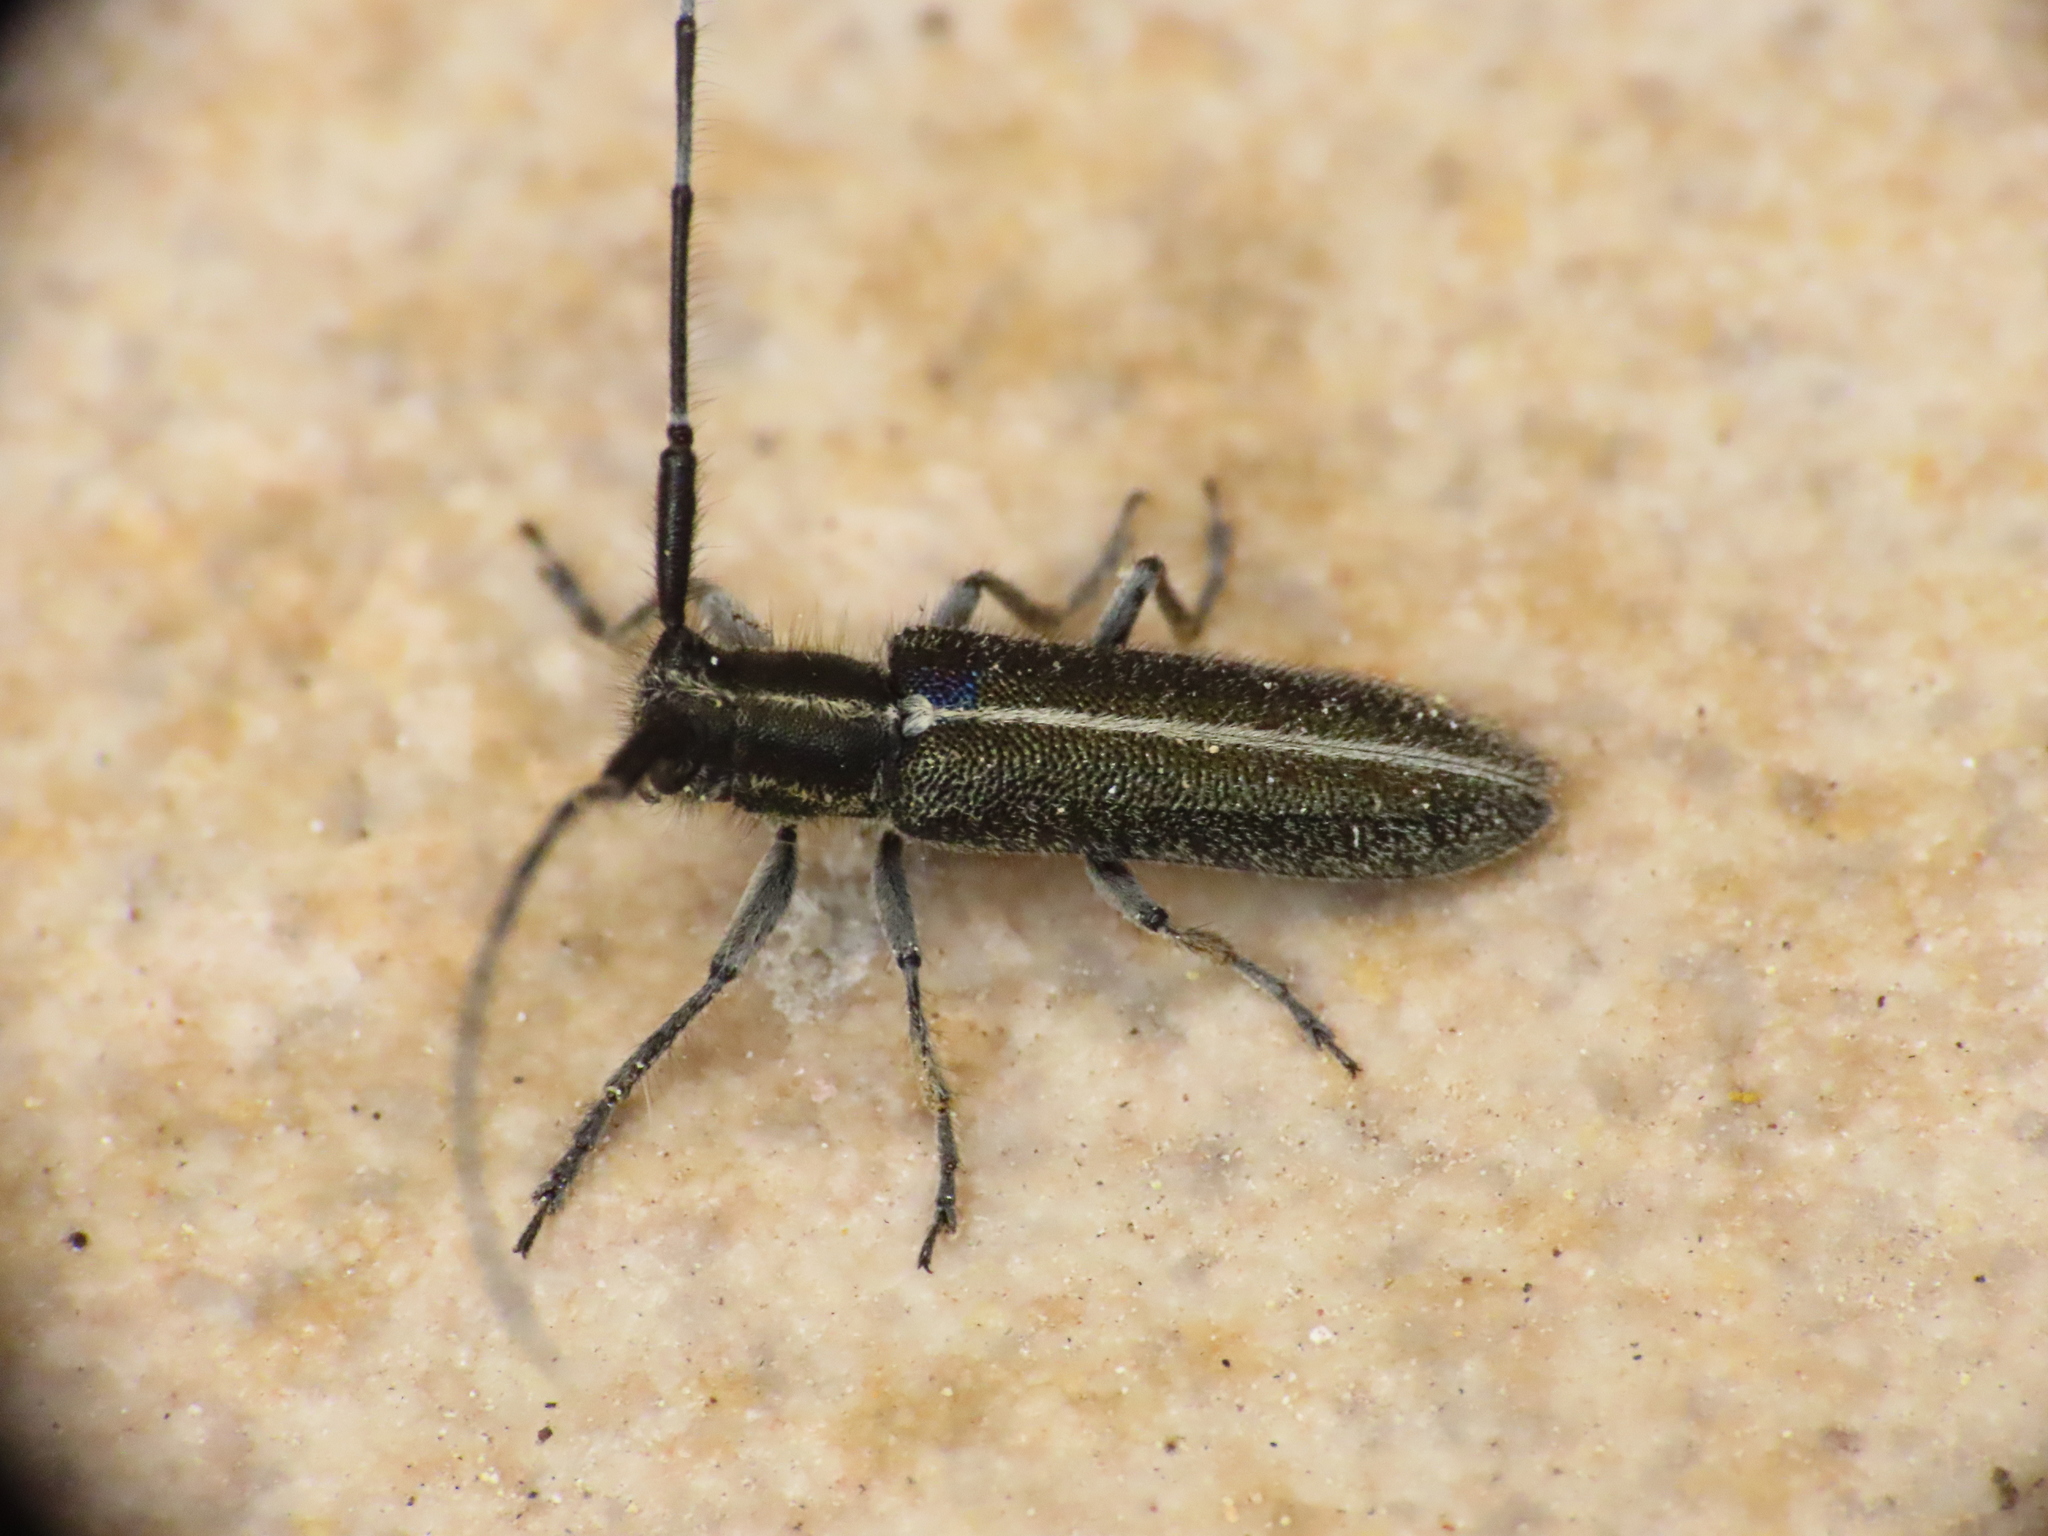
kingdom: Animalia
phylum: Arthropoda
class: Insecta
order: Coleoptera
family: Cerambycidae
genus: Agapanthia
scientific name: Agapanthia cardui
